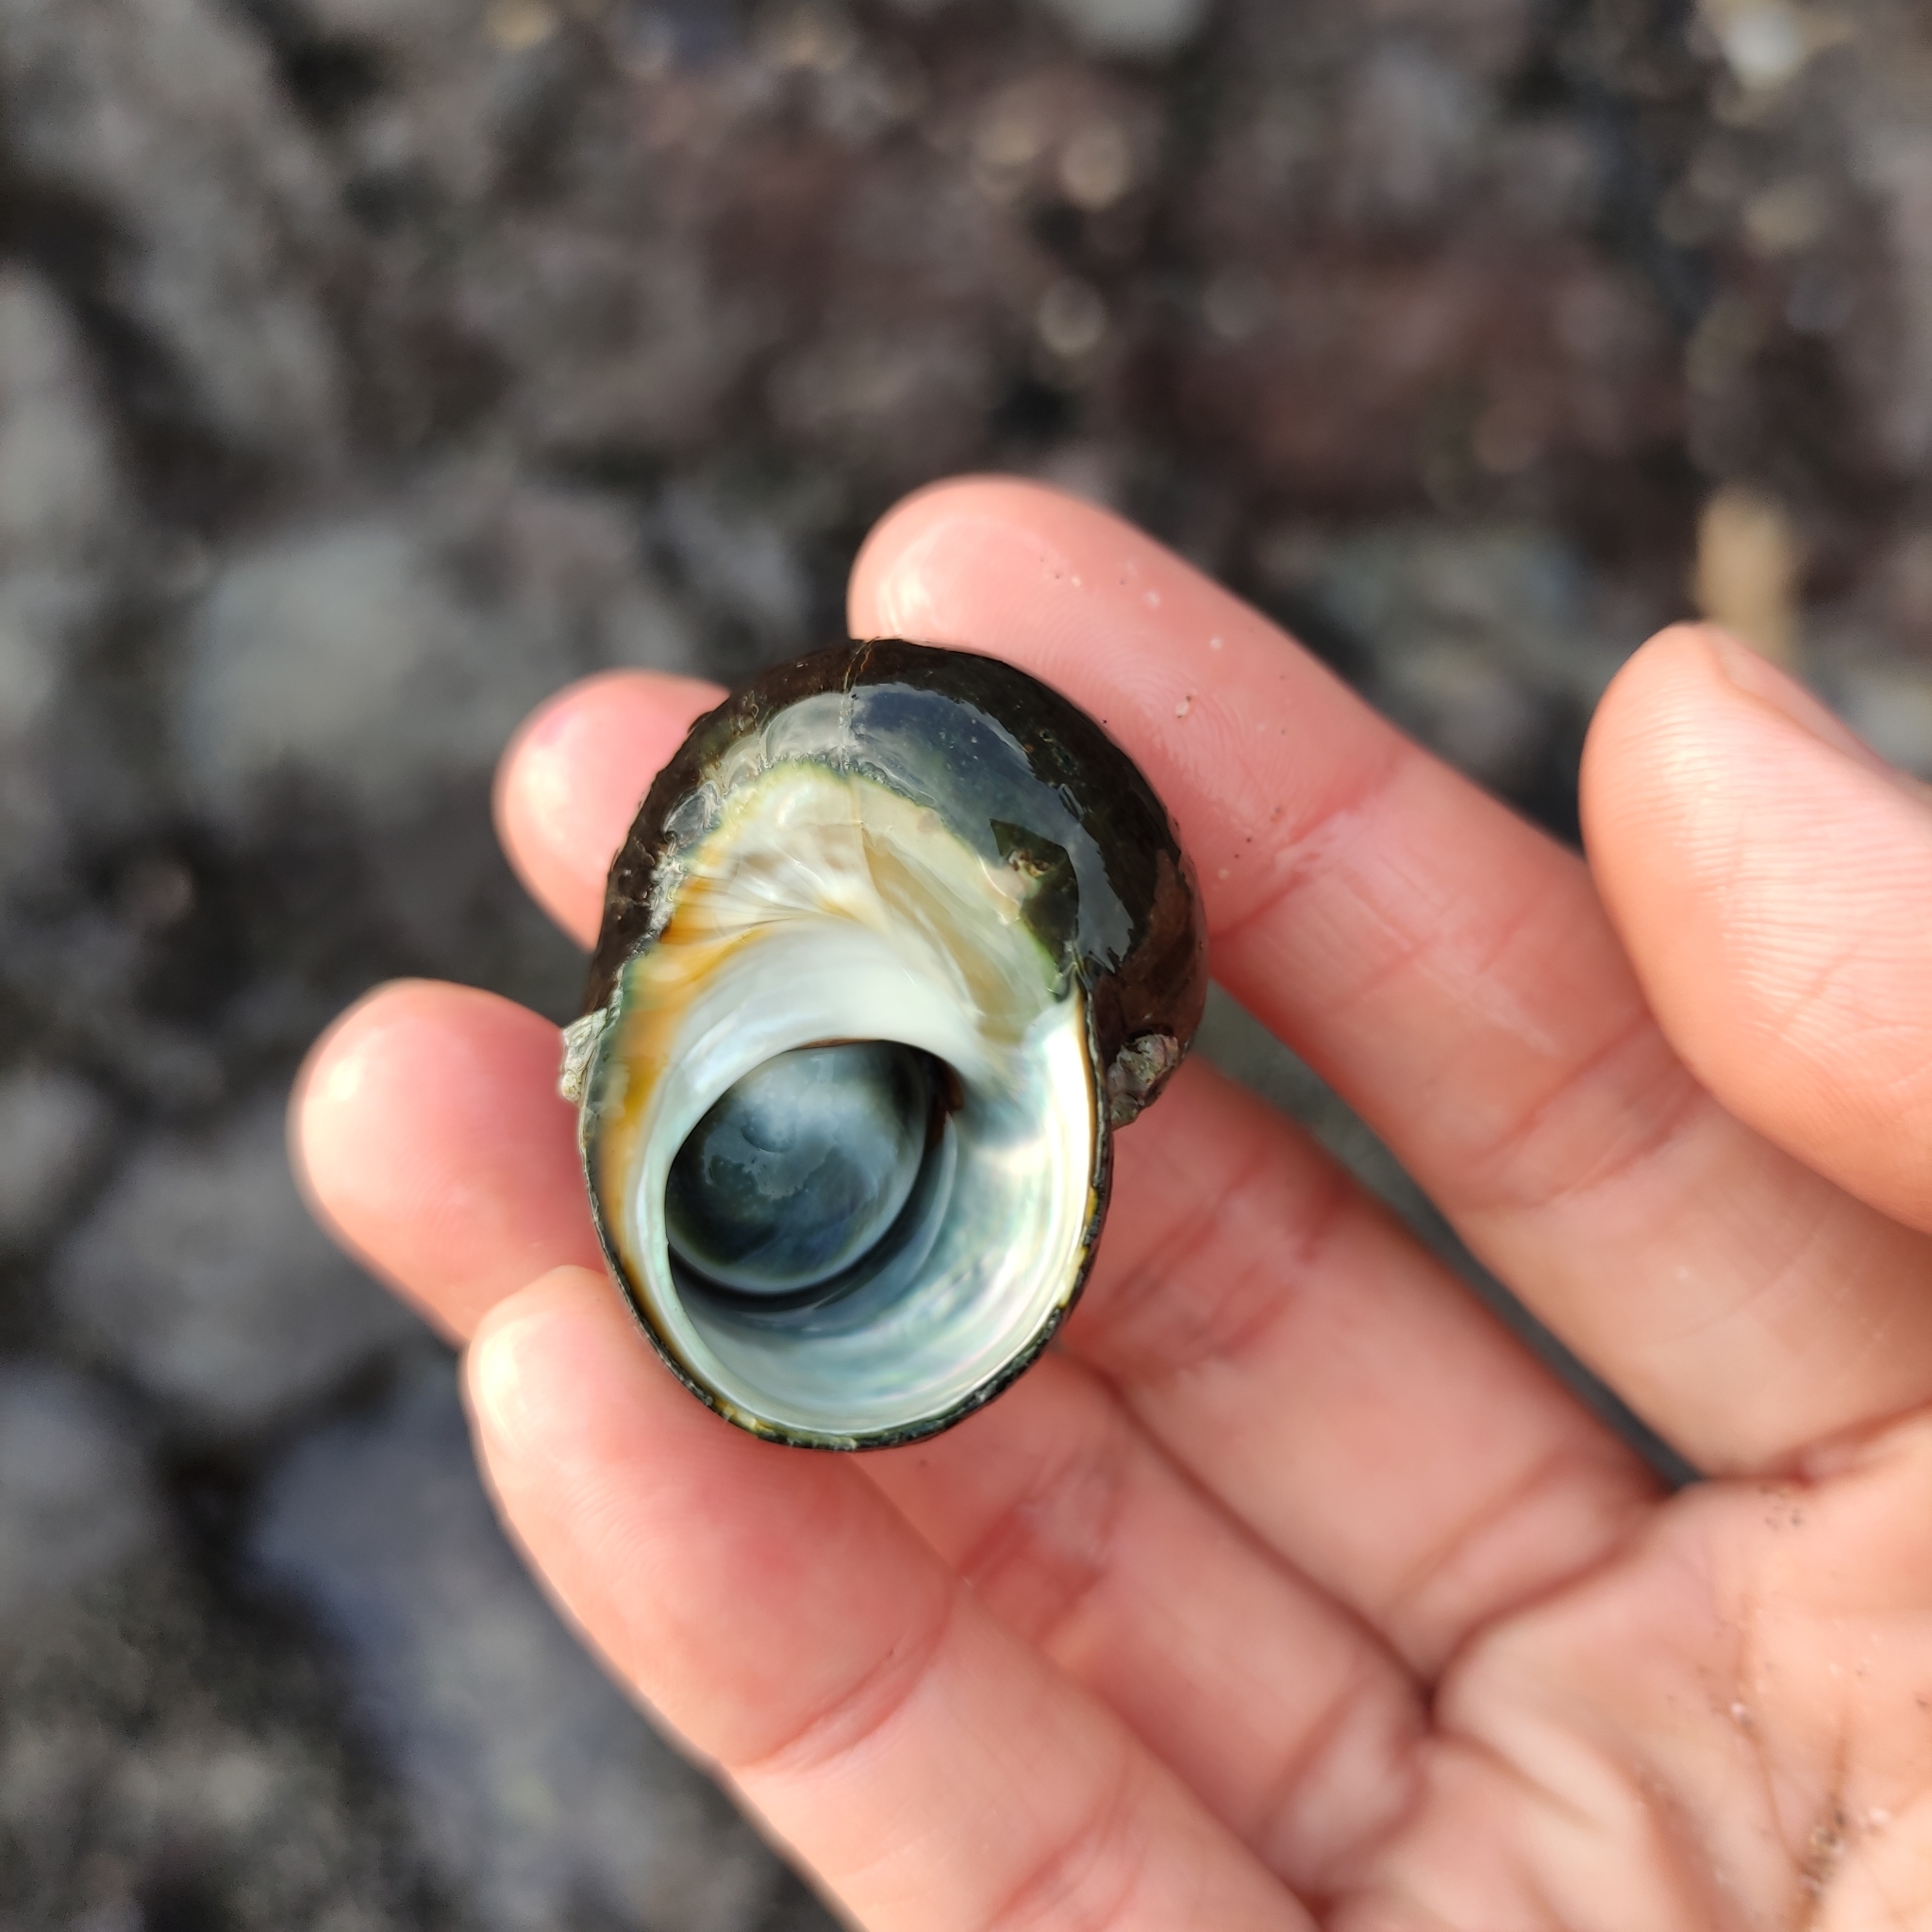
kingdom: Animalia
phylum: Mollusca
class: Gastropoda
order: Trochida
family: Turbinidae
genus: Lunella
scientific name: Lunella smaragda
